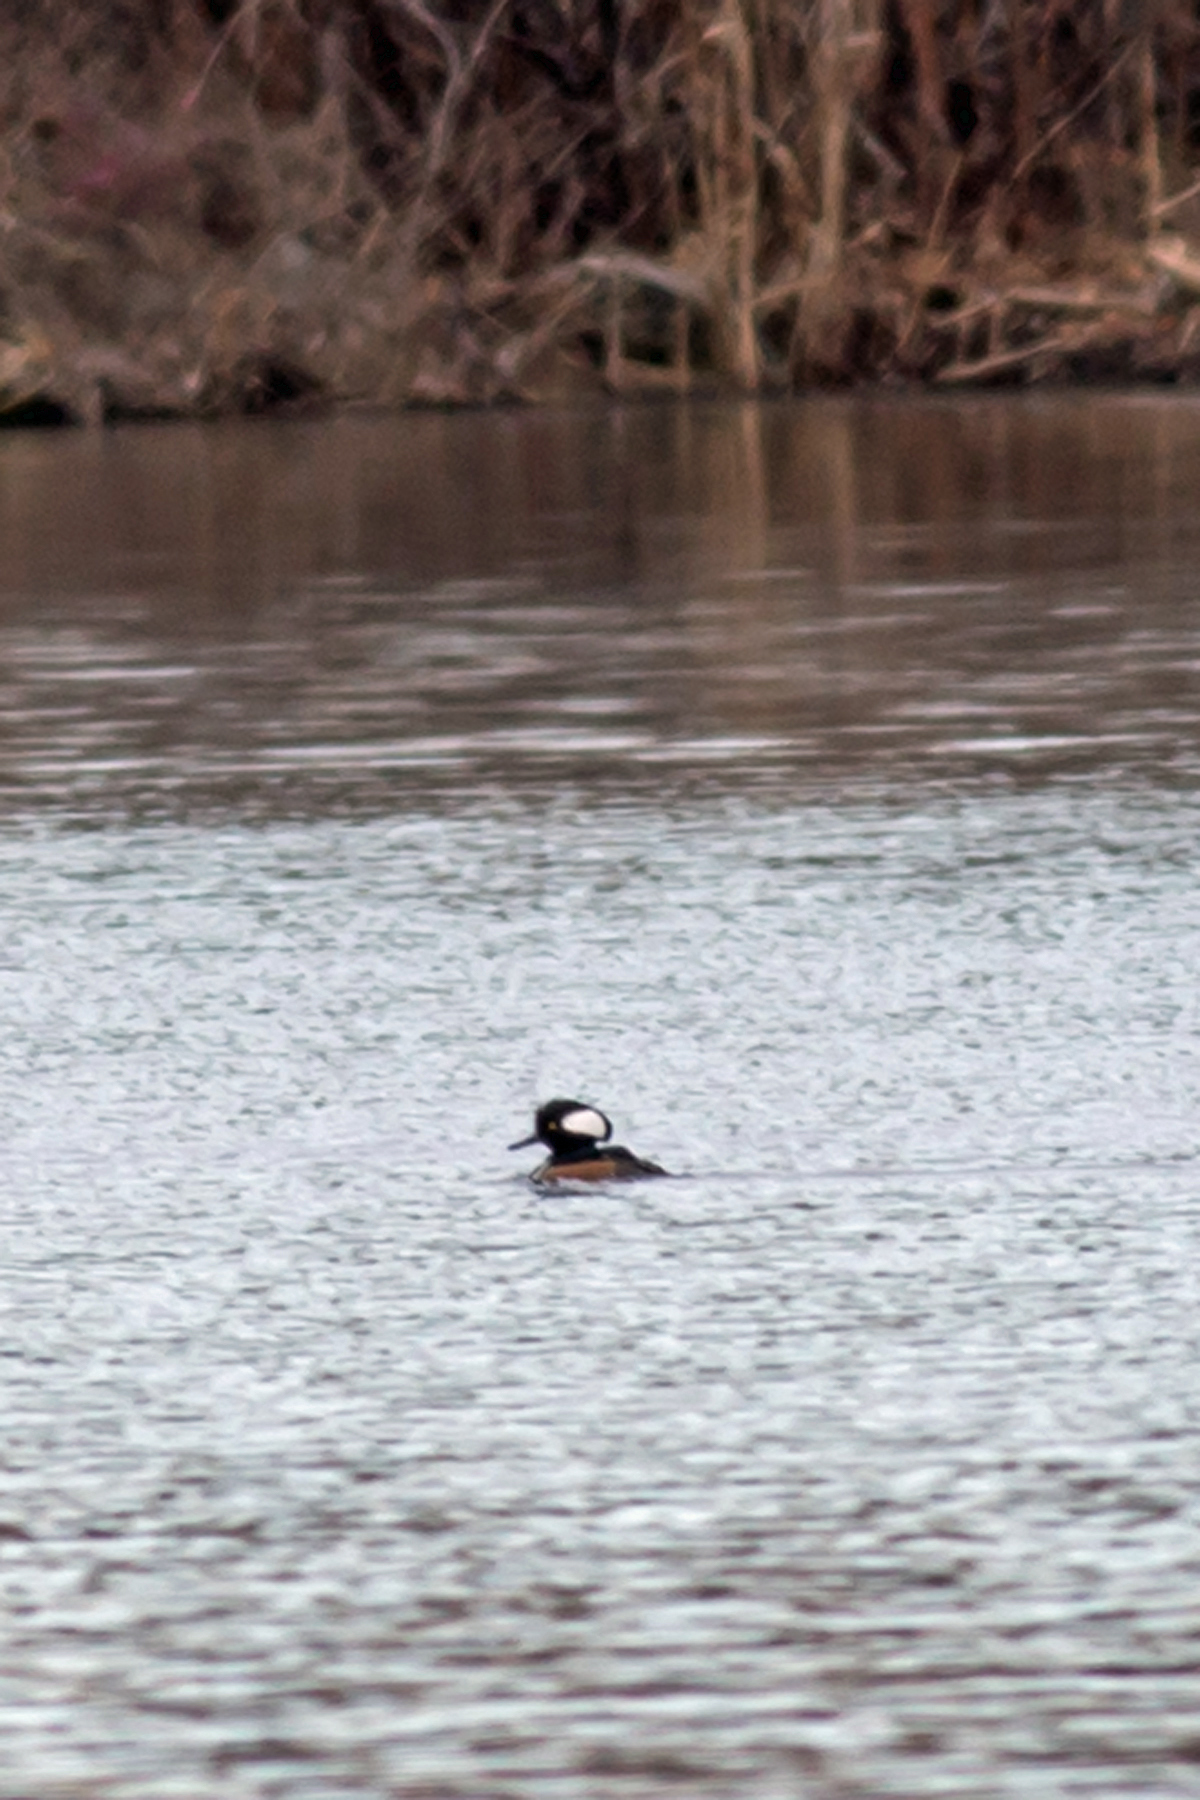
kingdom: Animalia
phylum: Chordata
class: Aves
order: Anseriformes
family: Anatidae
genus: Lophodytes
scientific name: Lophodytes cucullatus
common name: Hooded merganser
